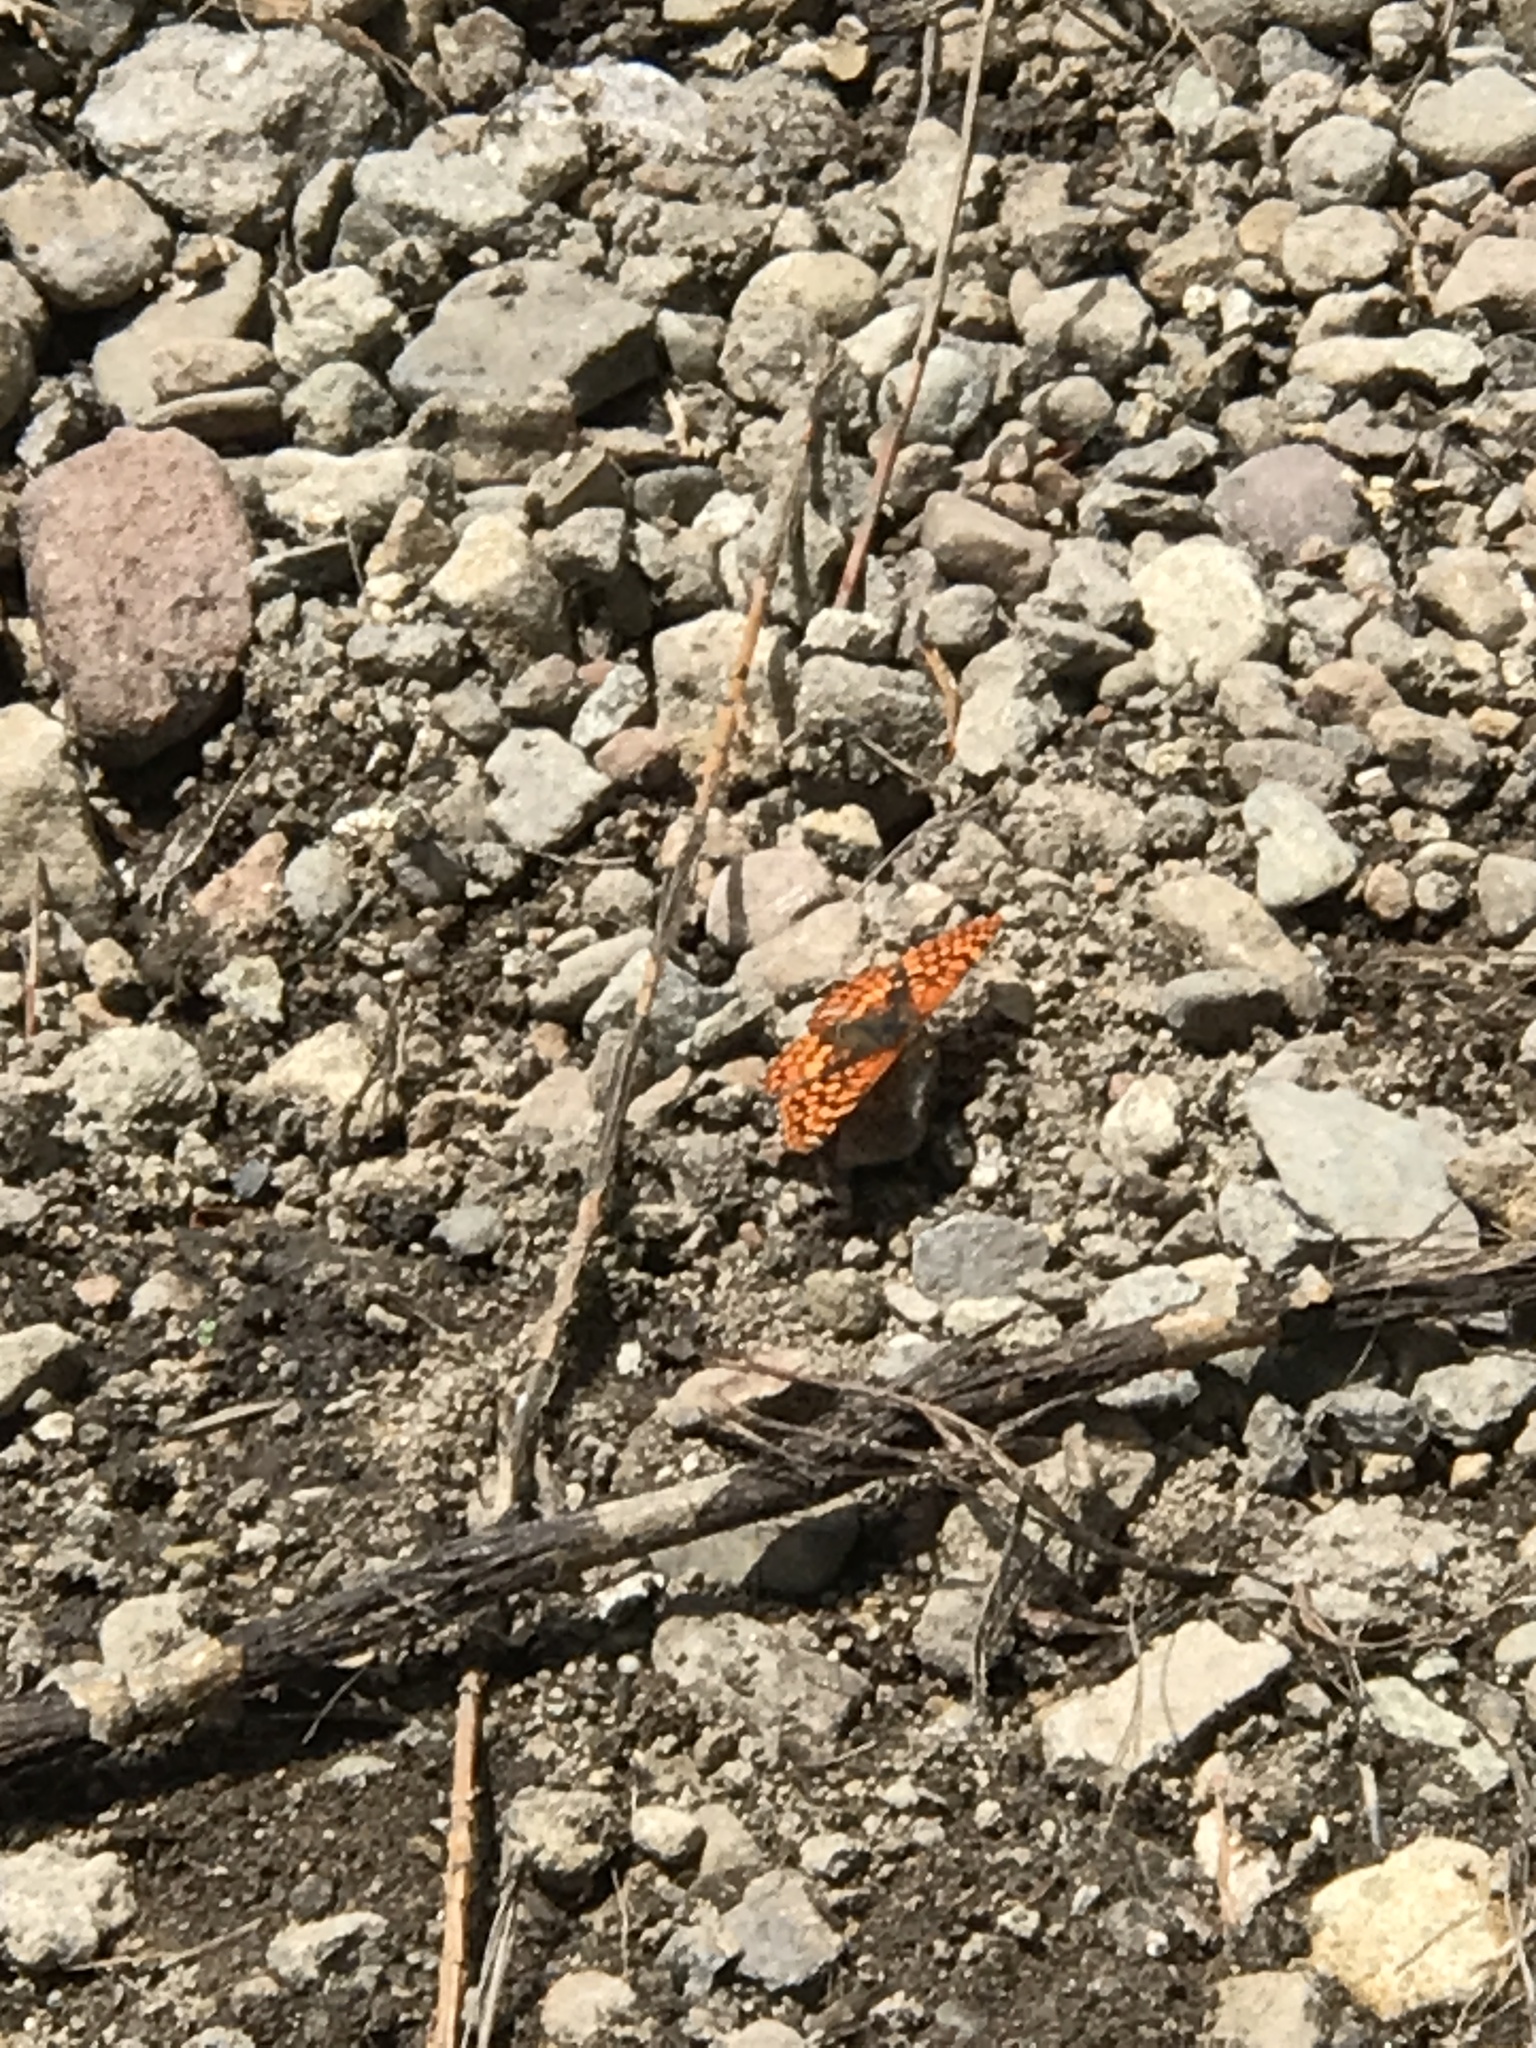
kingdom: Animalia
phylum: Arthropoda
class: Insecta
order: Lepidoptera
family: Nymphalidae
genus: Chlosyne
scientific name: Chlosyne palla
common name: Northern checkerspot
